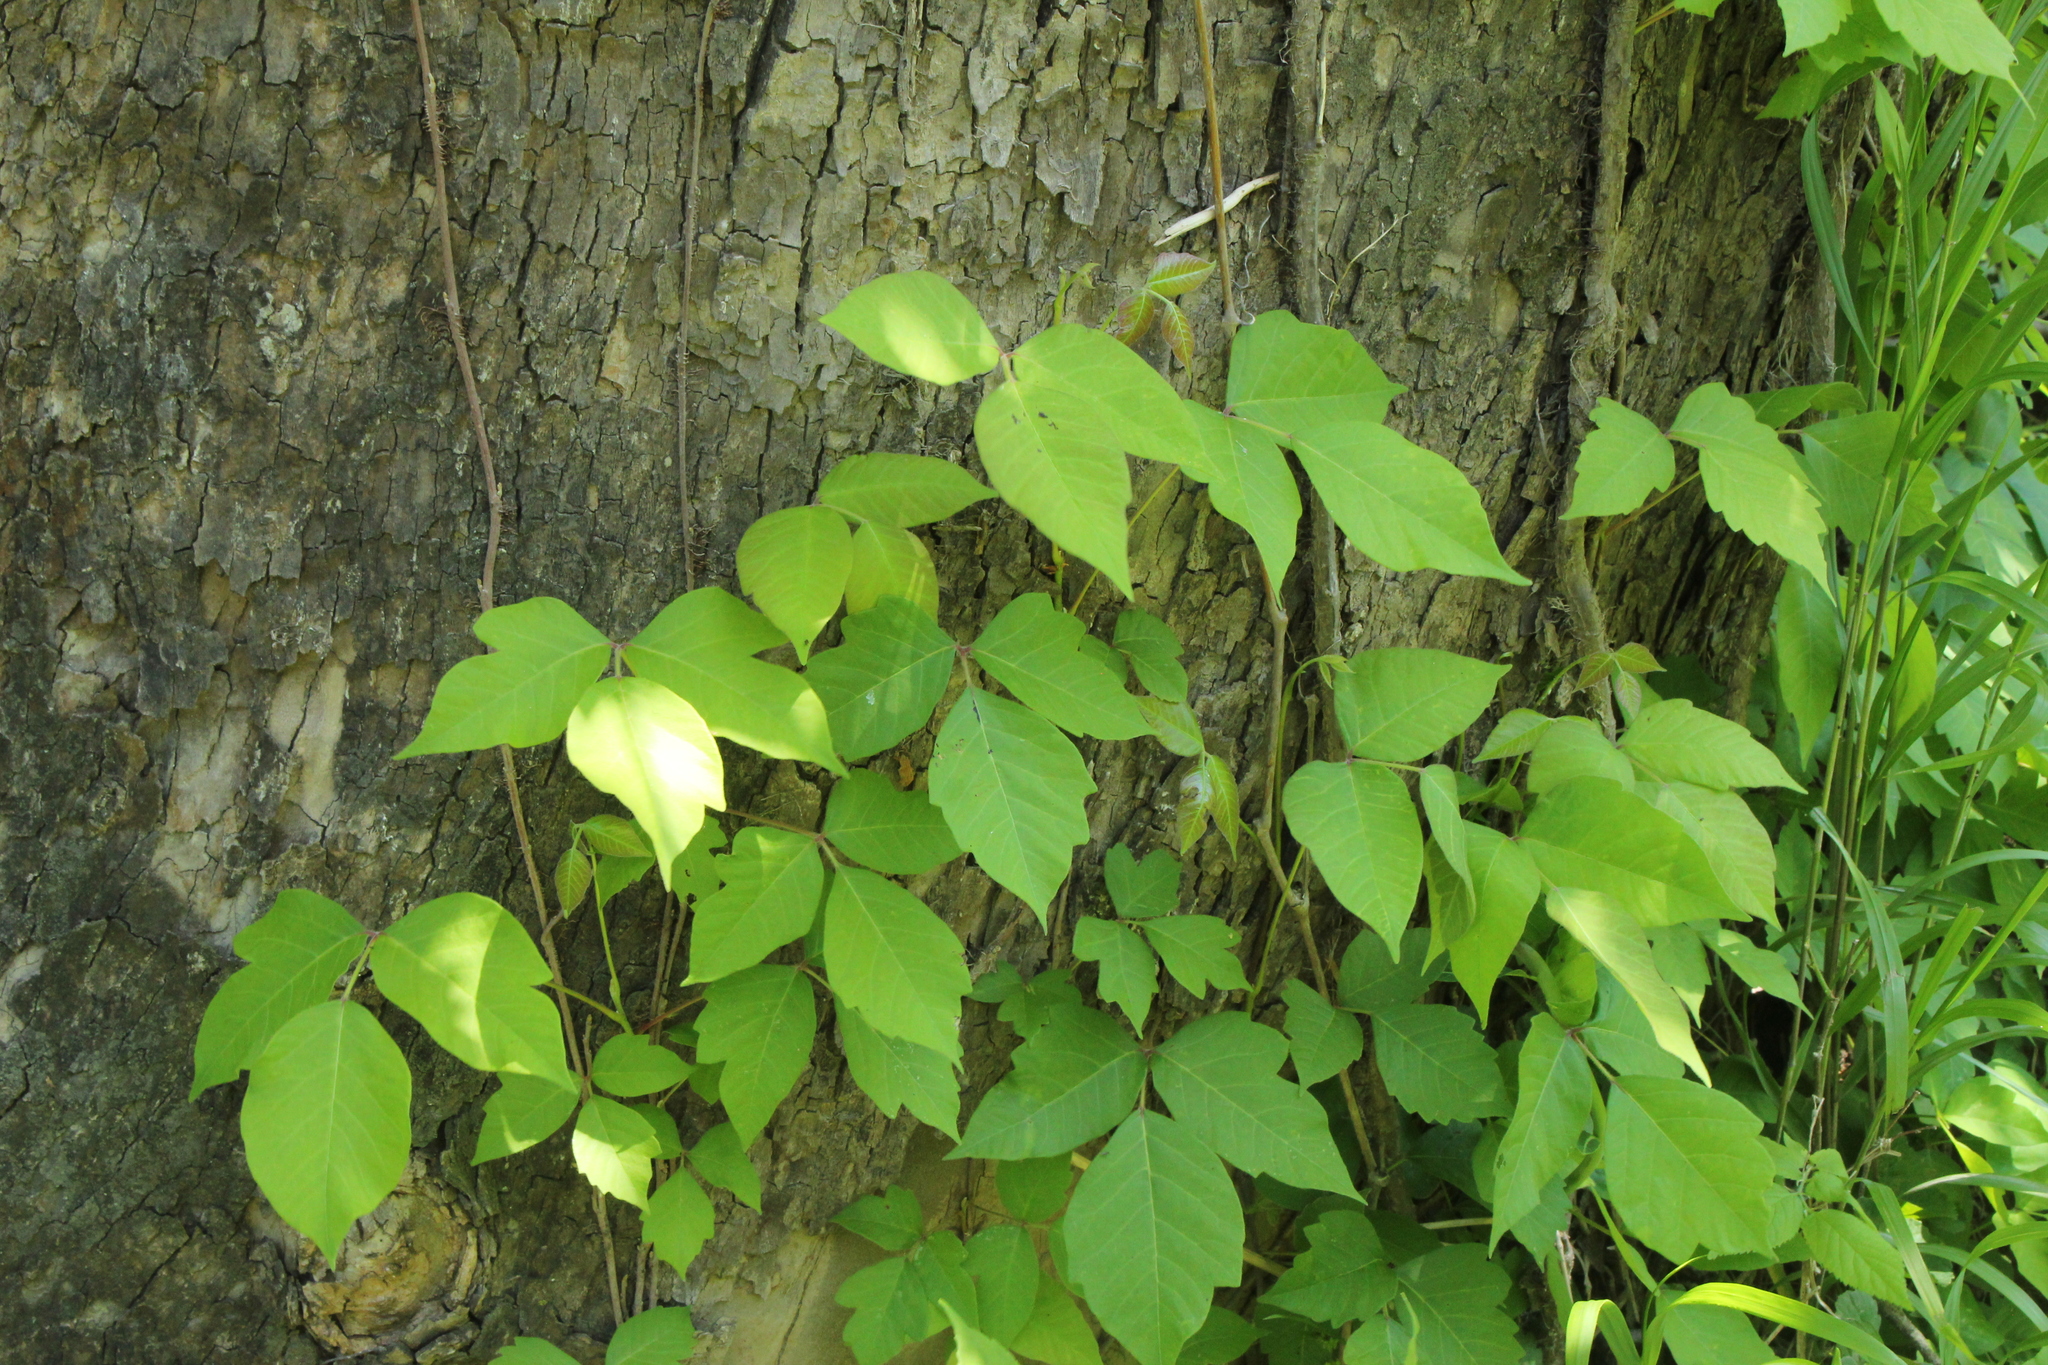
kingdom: Plantae
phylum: Tracheophyta
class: Magnoliopsida
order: Sapindales
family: Anacardiaceae
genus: Toxicodendron
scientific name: Toxicodendron radicans
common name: Poison ivy
